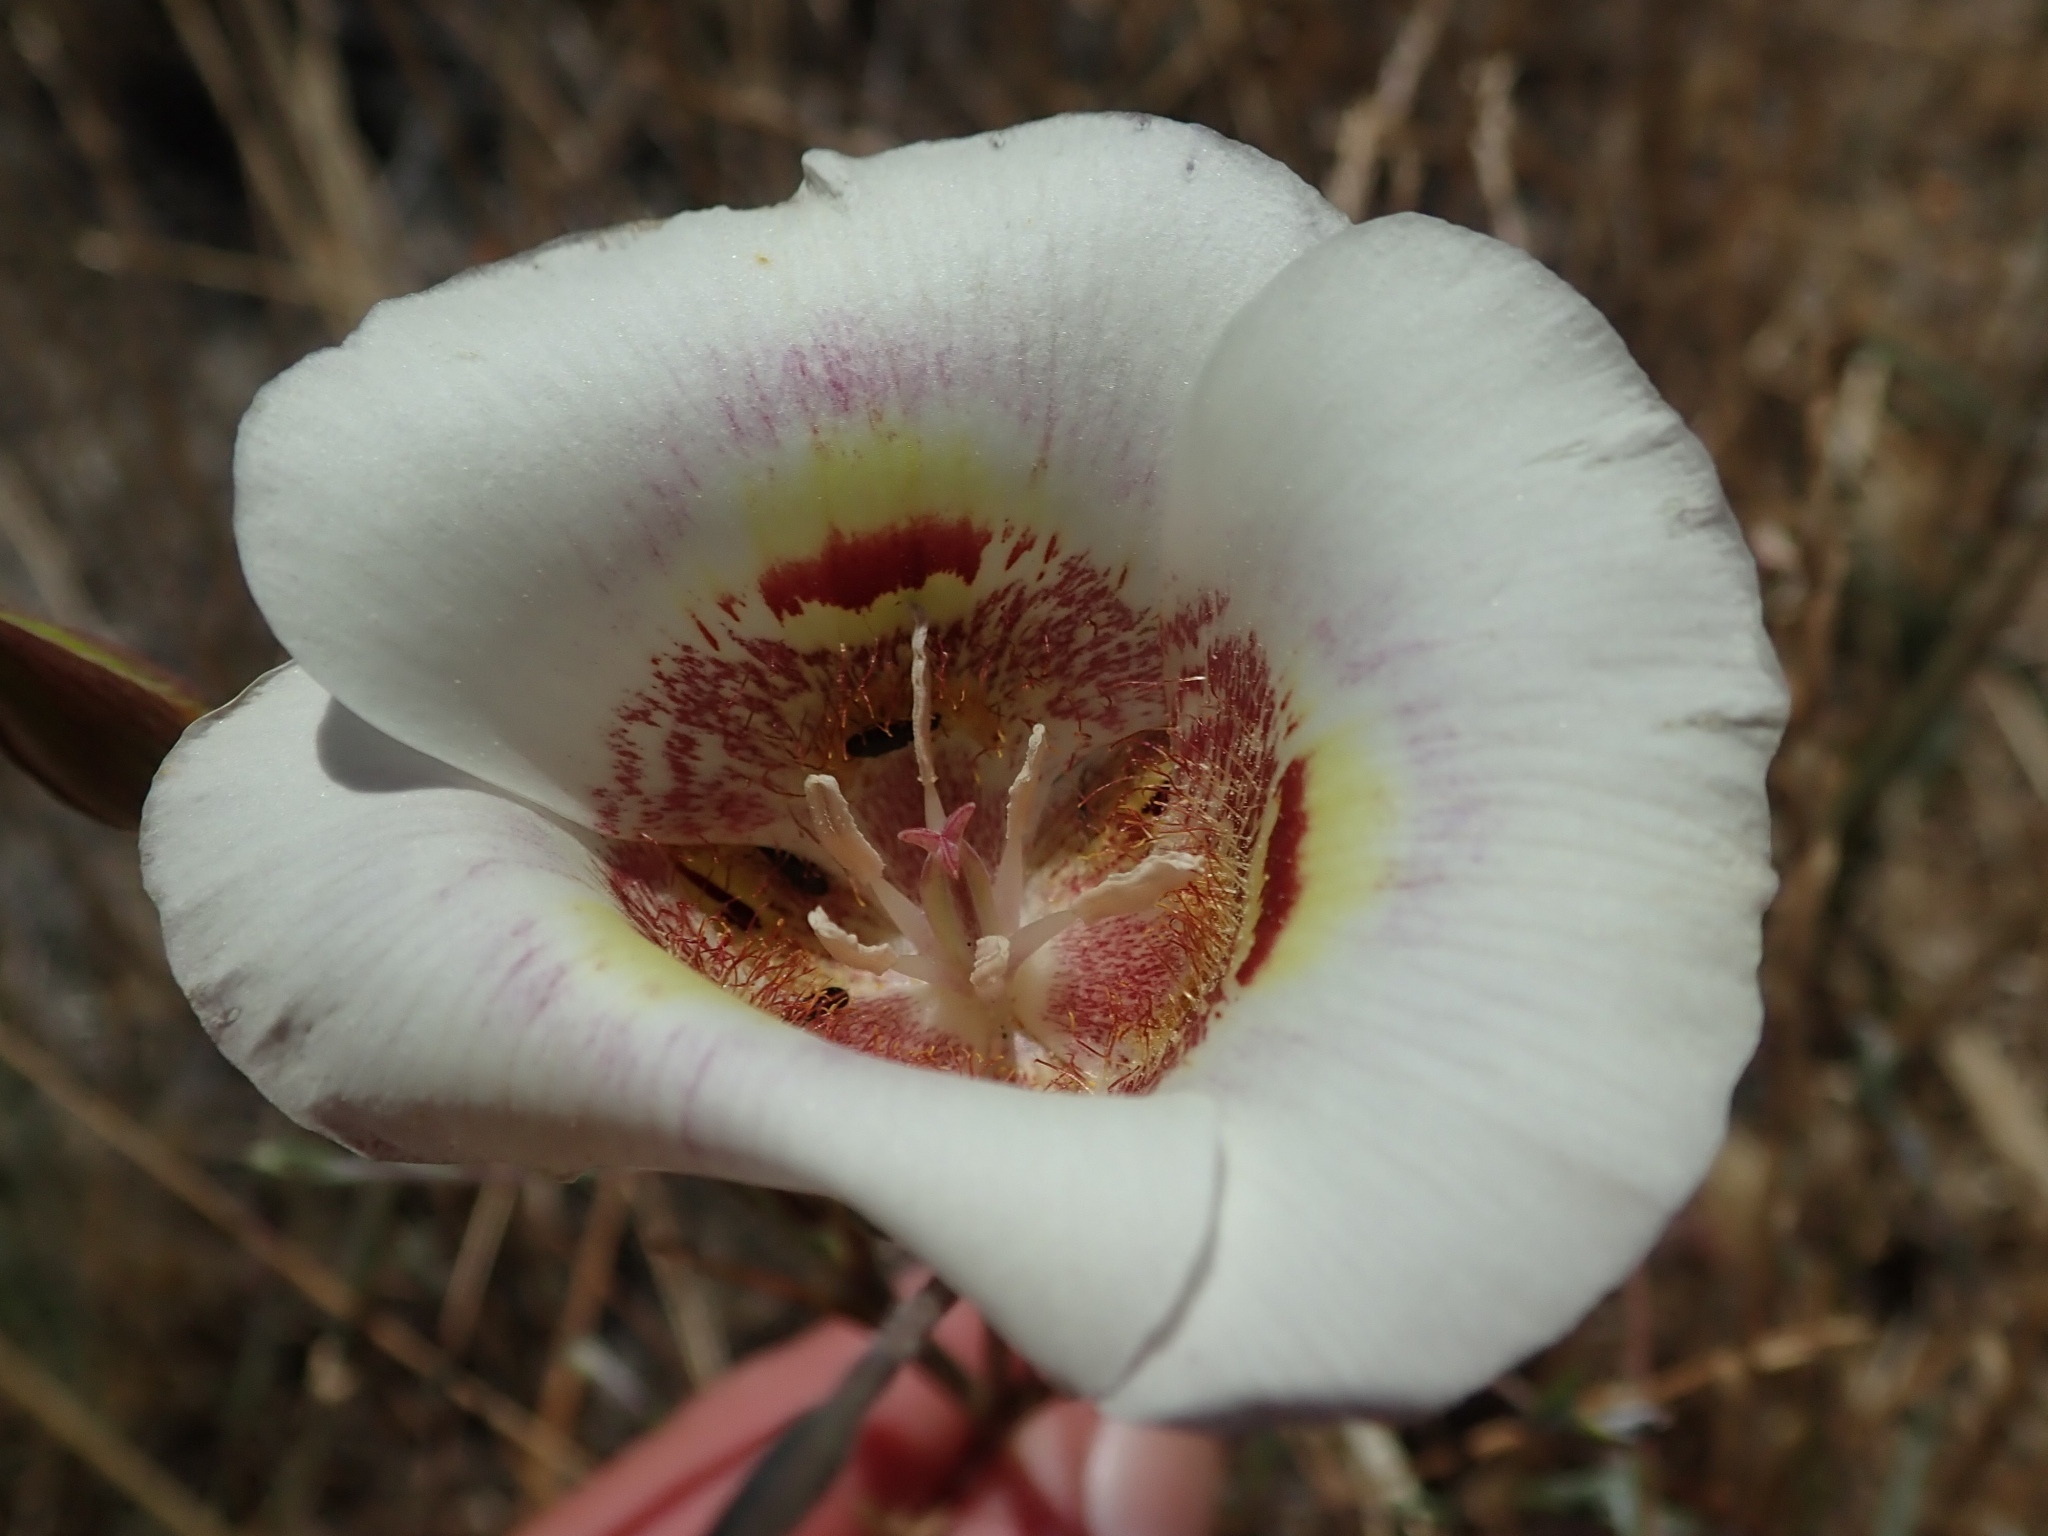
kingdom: Plantae
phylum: Tracheophyta
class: Liliopsida
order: Liliales
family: Liliaceae
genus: Calochortus
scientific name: Calochortus argillosus
